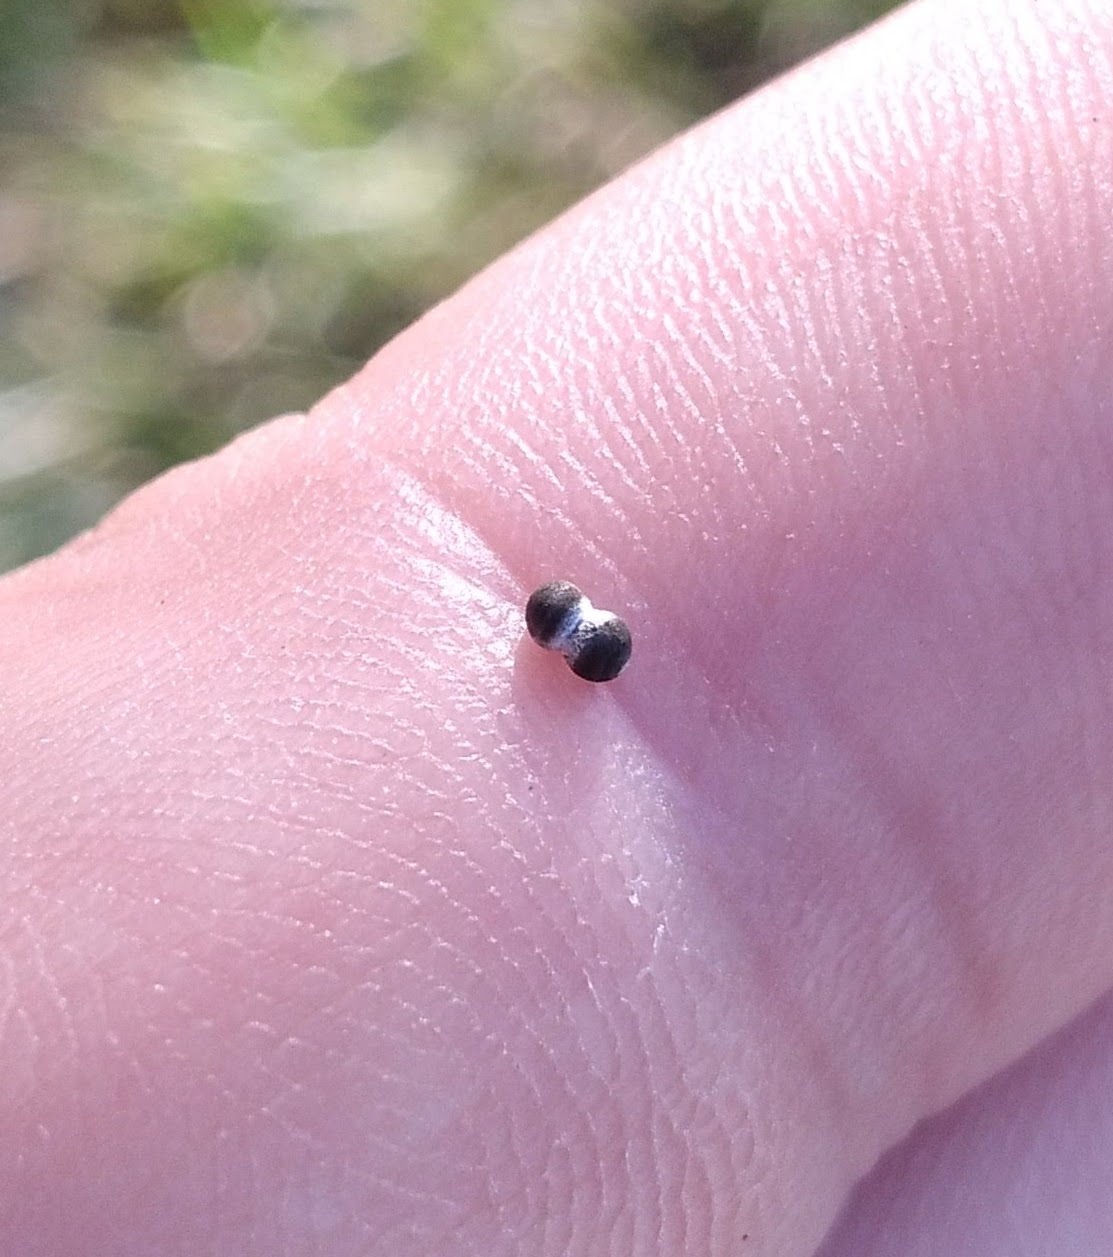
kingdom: Animalia
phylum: Arthropoda
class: Insecta
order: Hymenoptera
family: Eulophidae
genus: Galeopsomyia
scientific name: Galeopsomyia haemon
